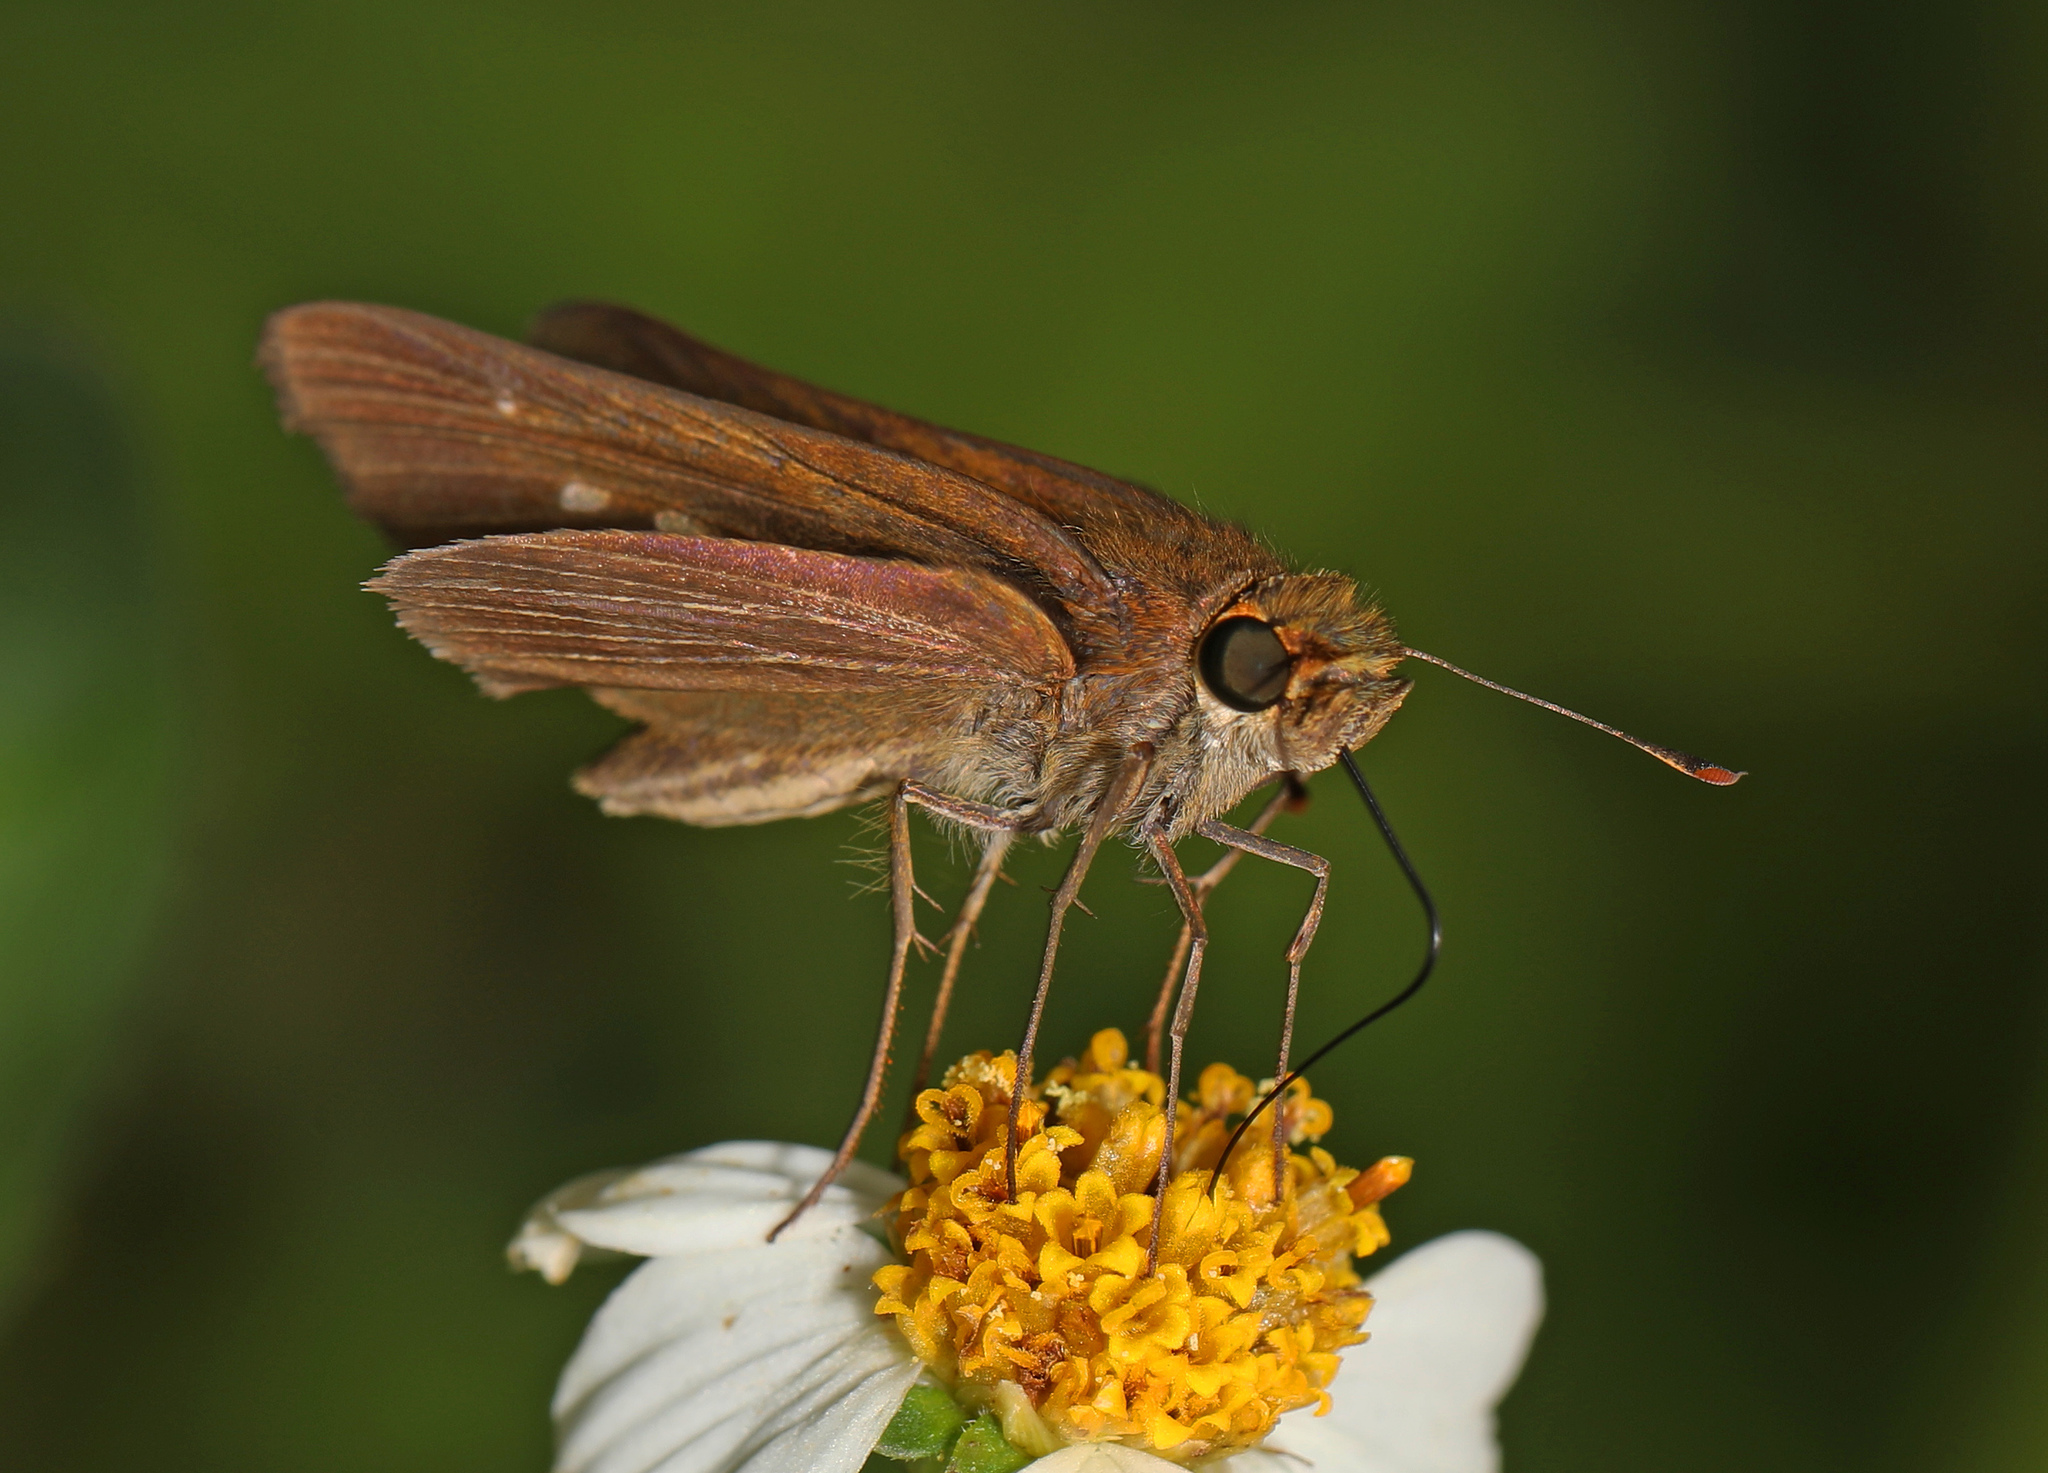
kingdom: Animalia
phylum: Arthropoda
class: Insecta
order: Lepidoptera
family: Hesperiidae
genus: Panoquina
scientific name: Panoquina ocola
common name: Ocola skipper
